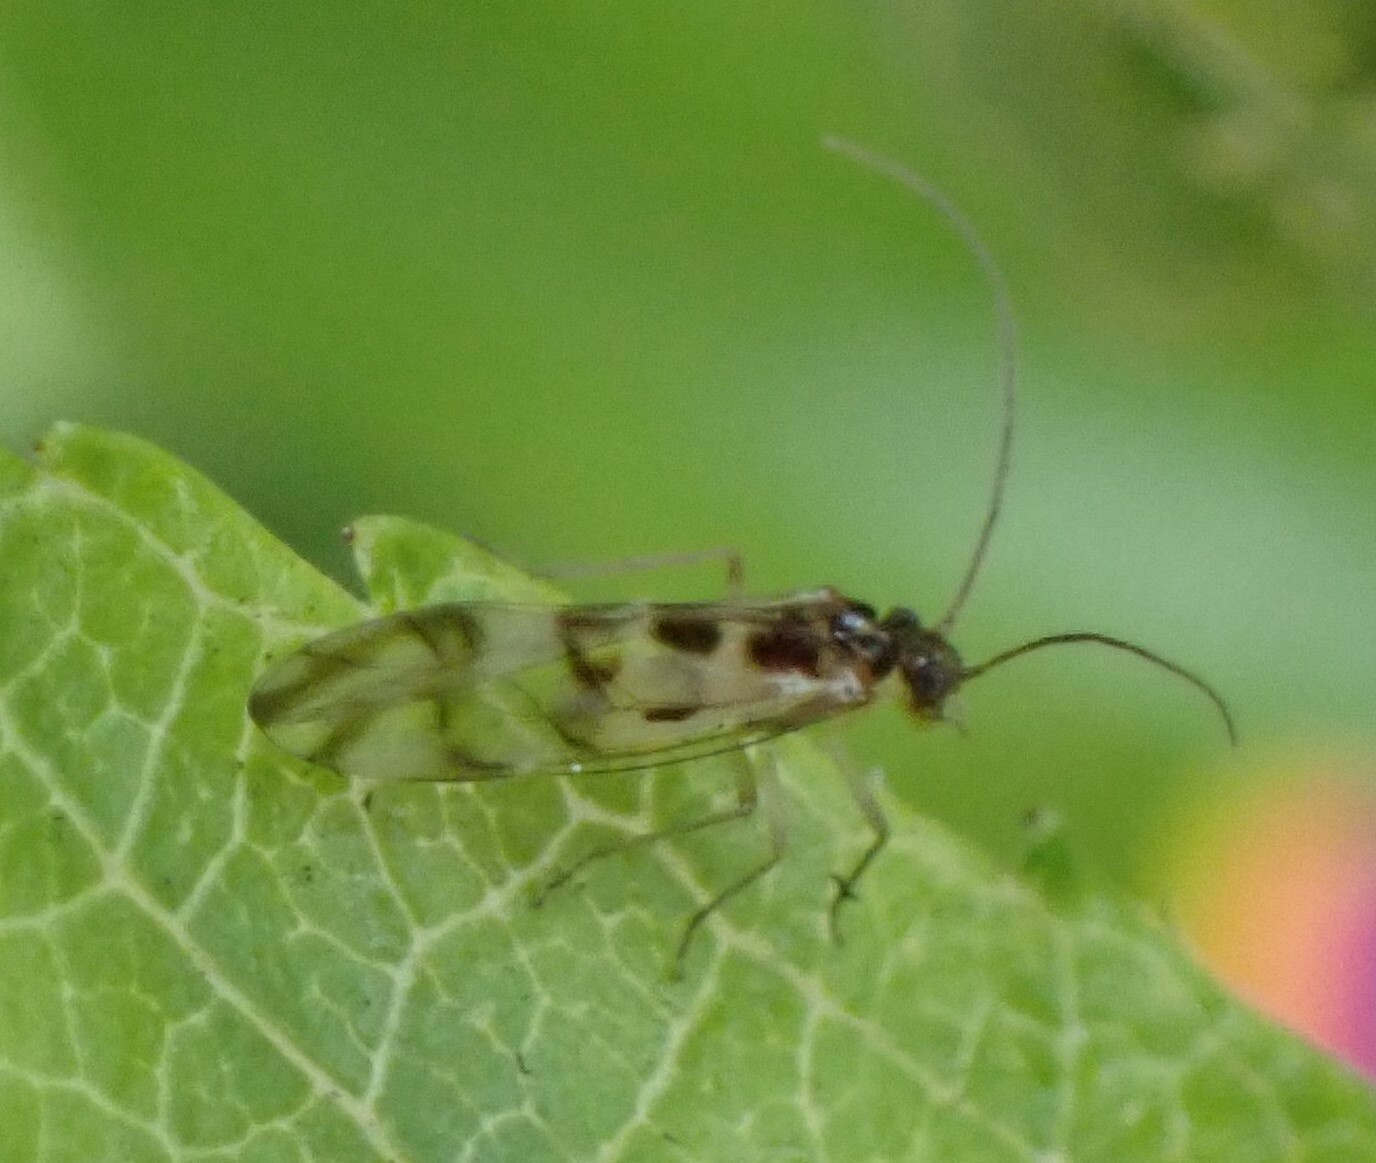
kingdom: Animalia
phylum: Arthropoda
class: Insecta
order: Psocodea
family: Stenopsocidae
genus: Graphopsocus
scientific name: Graphopsocus cruciatus
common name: Lizard bark louse
